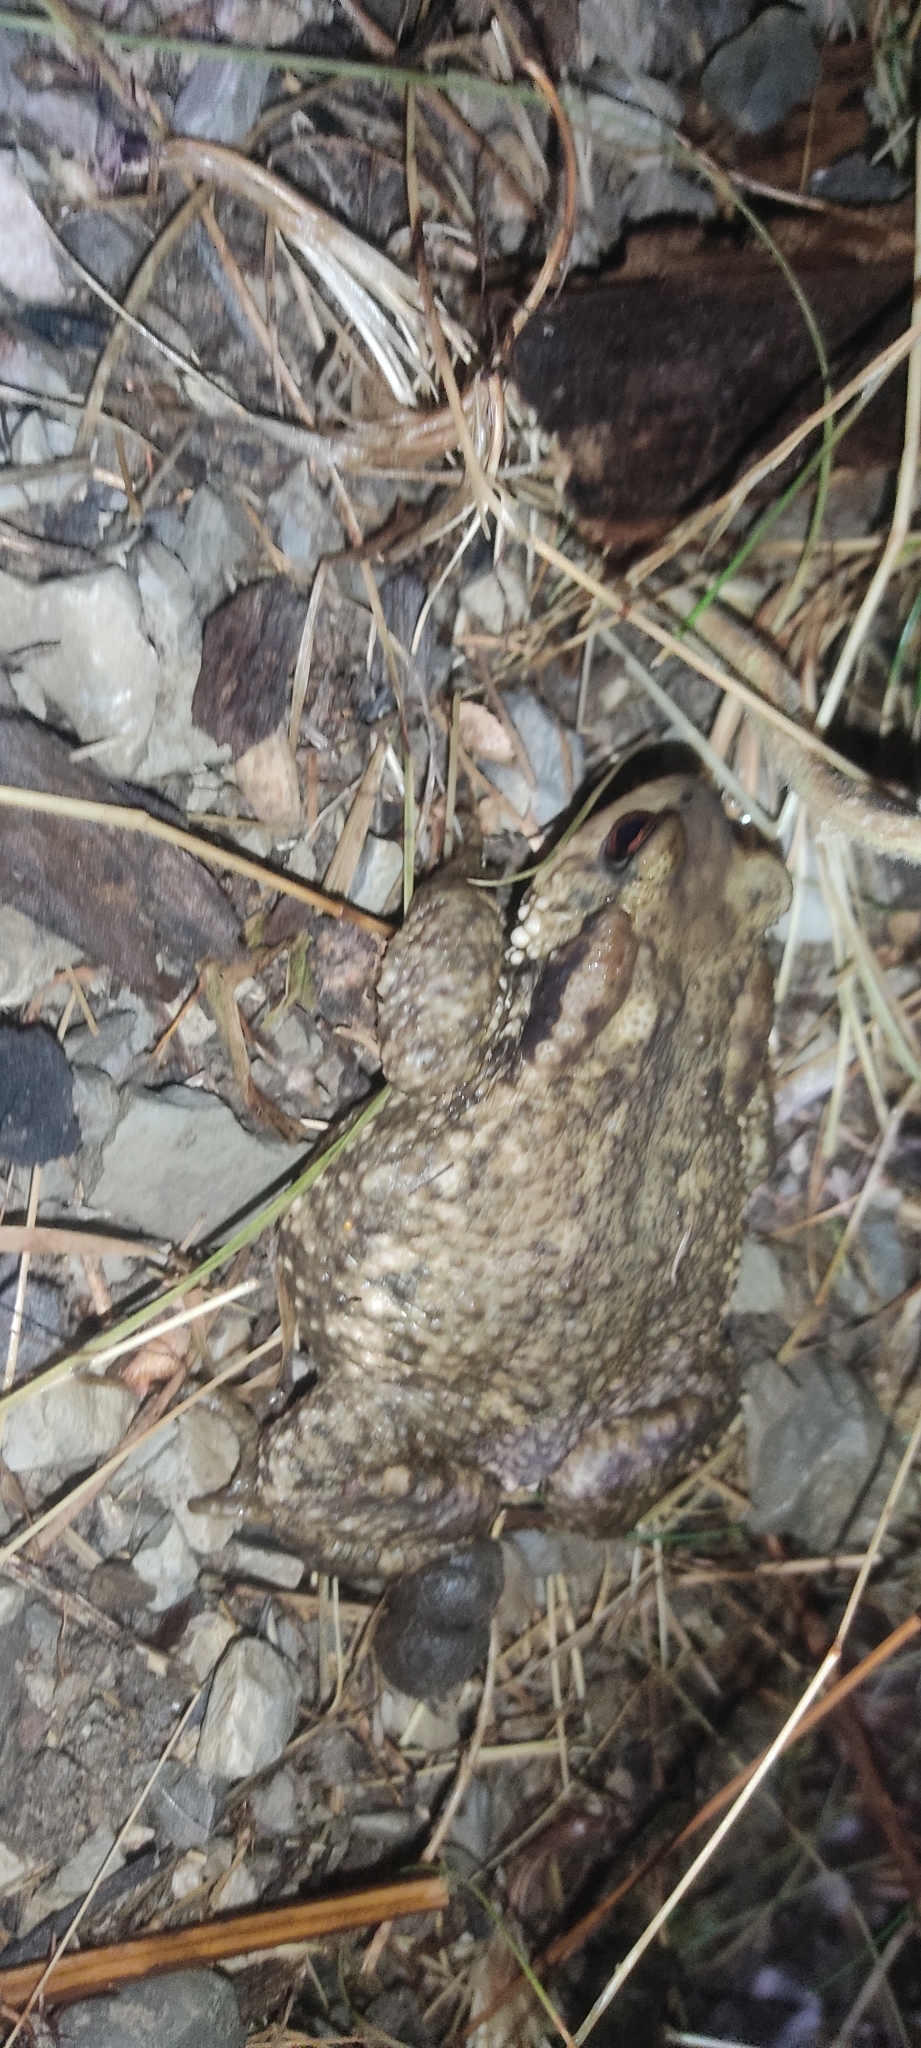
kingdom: Animalia
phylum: Chordata
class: Amphibia
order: Anura
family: Bufonidae
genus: Bufo
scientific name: Bufo spinosus
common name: Western common toad
